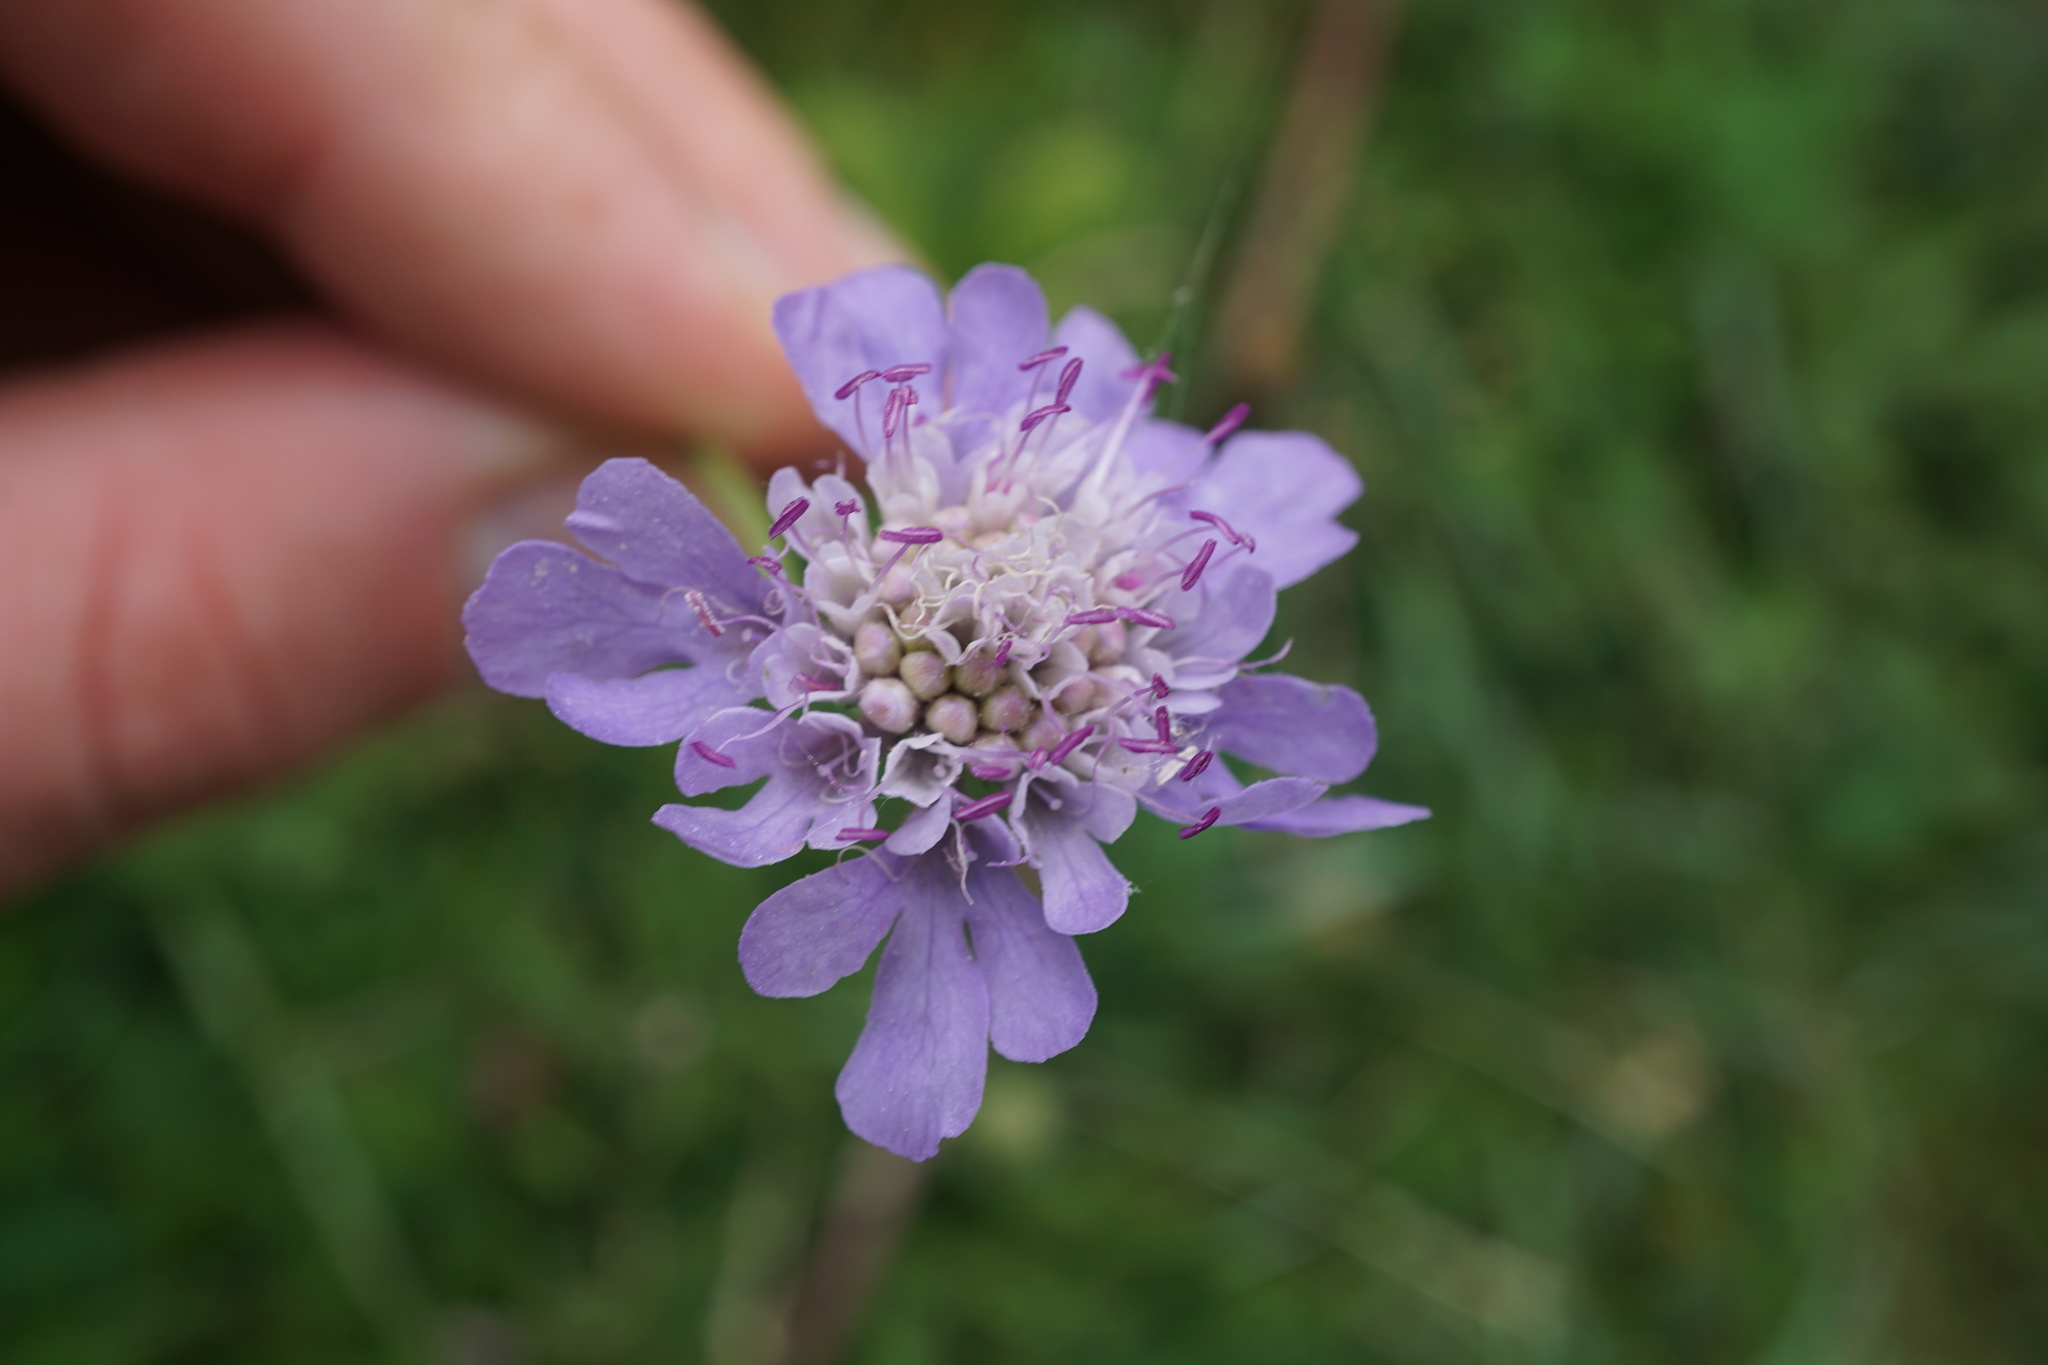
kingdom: Plantae
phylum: Tracheophyta
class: Magnoliopsida
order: Dipsacales
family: Caprifoliaceae
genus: Scabiosa
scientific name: Scabiosa columbaria
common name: Small scabious
